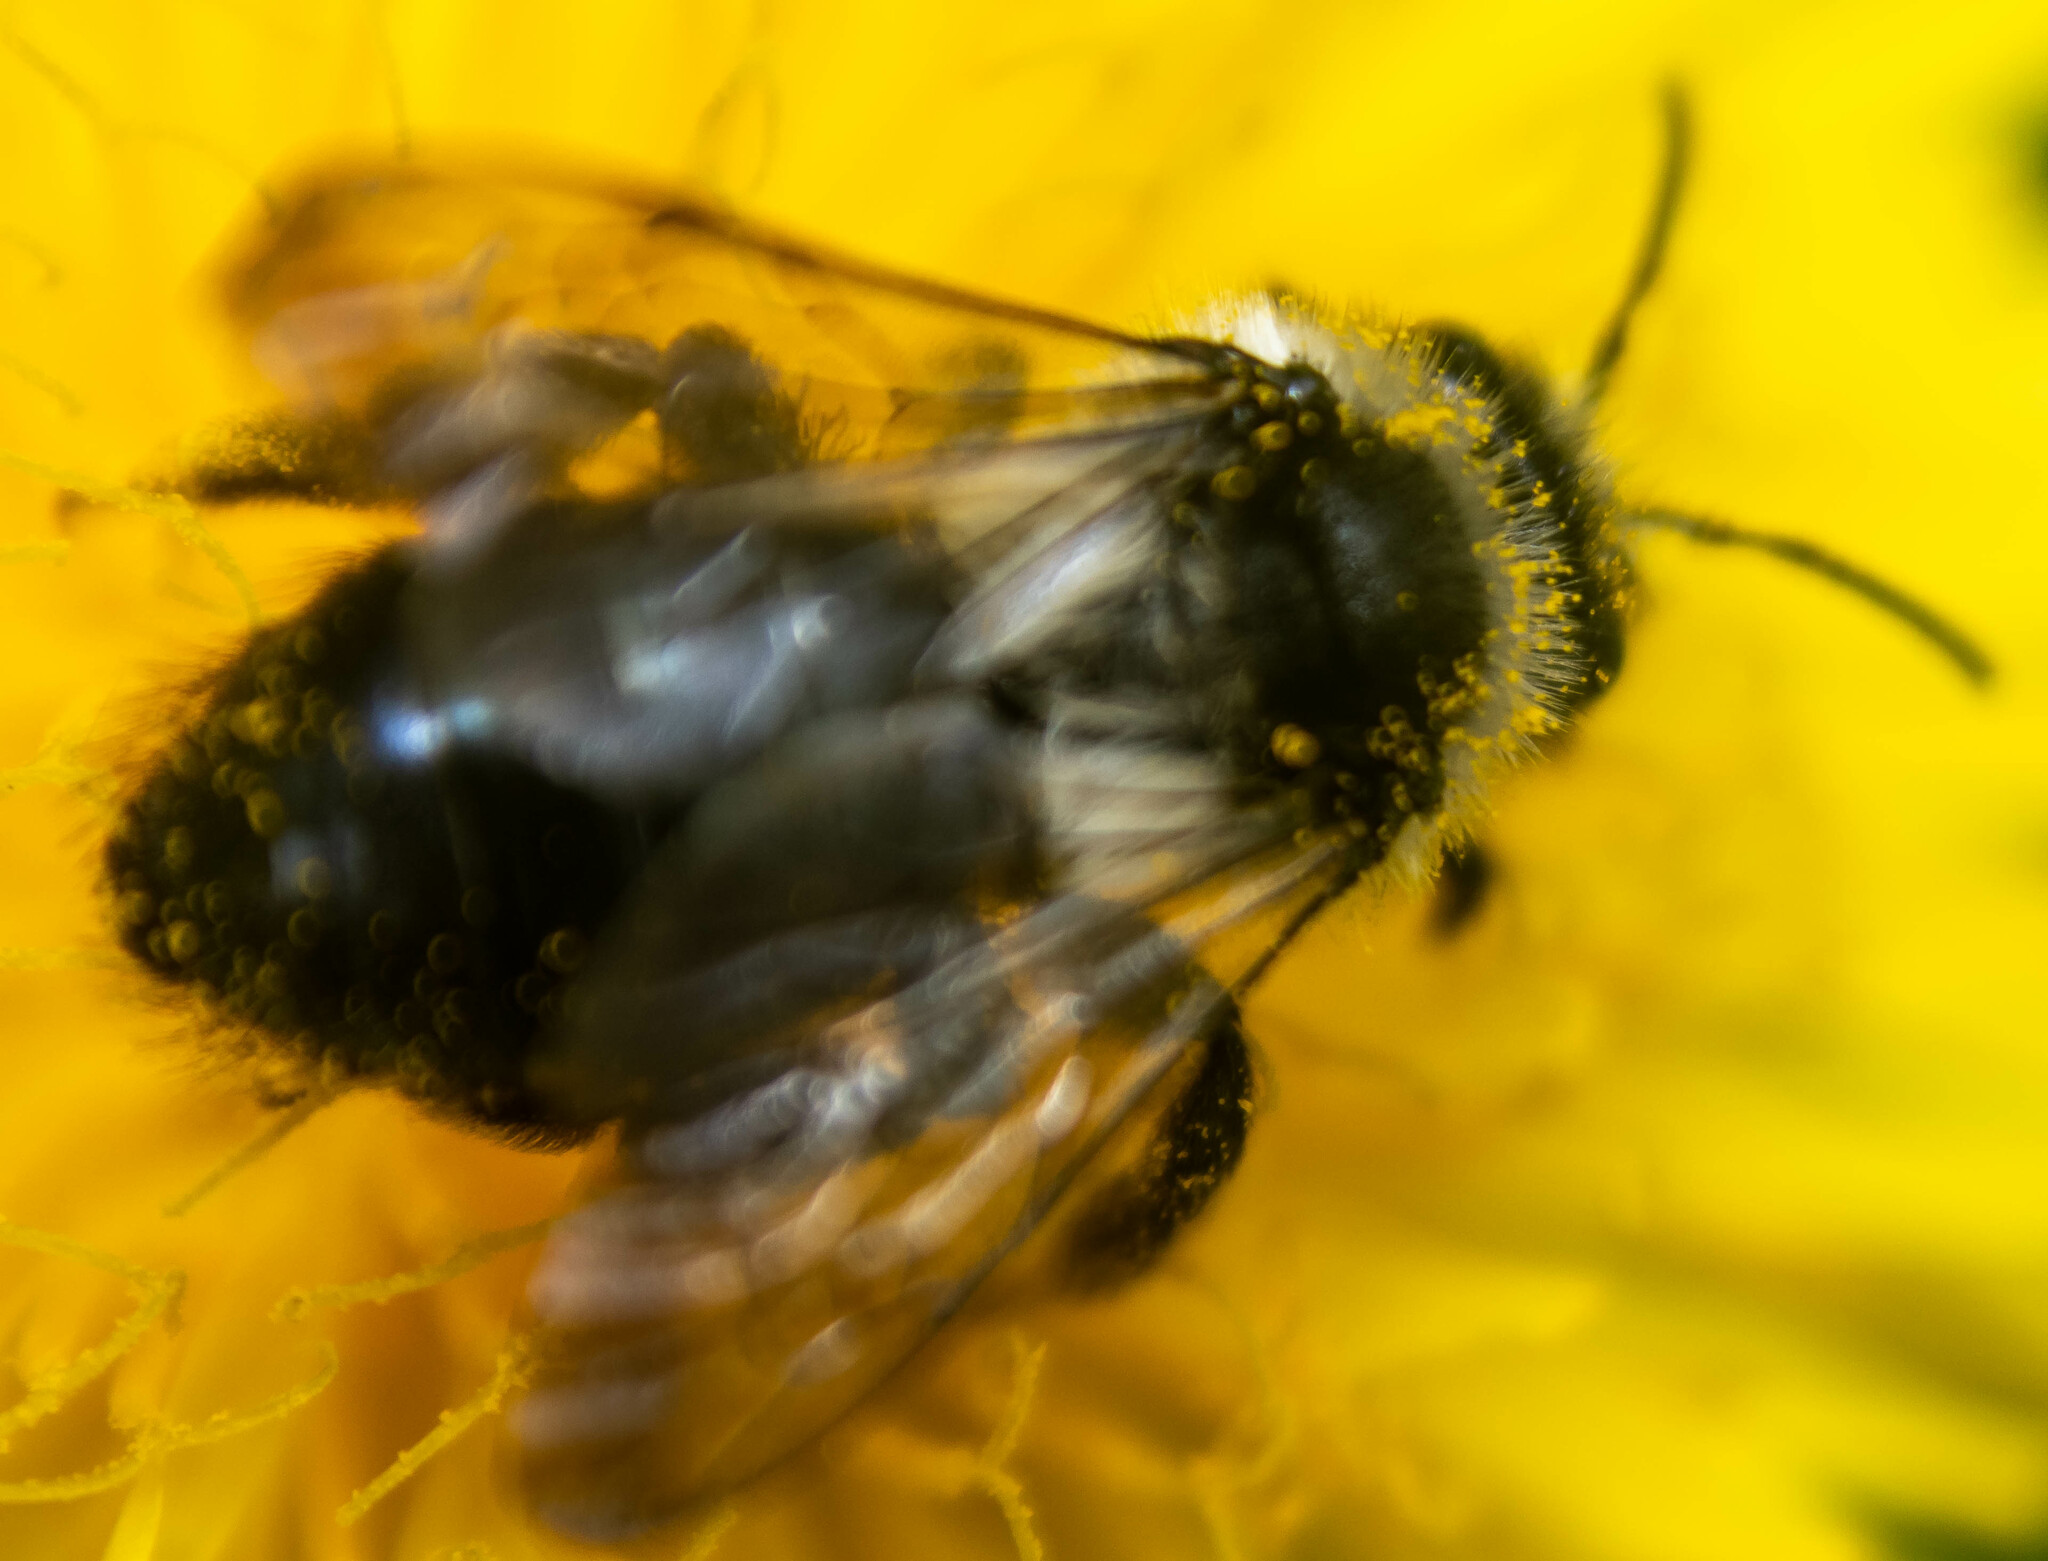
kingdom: Animalia
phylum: Arthropoda
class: Insecta
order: Hymenoptera
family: Andrenidae
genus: Andrena
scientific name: Andrena cineraria
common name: Ashy mining bee
